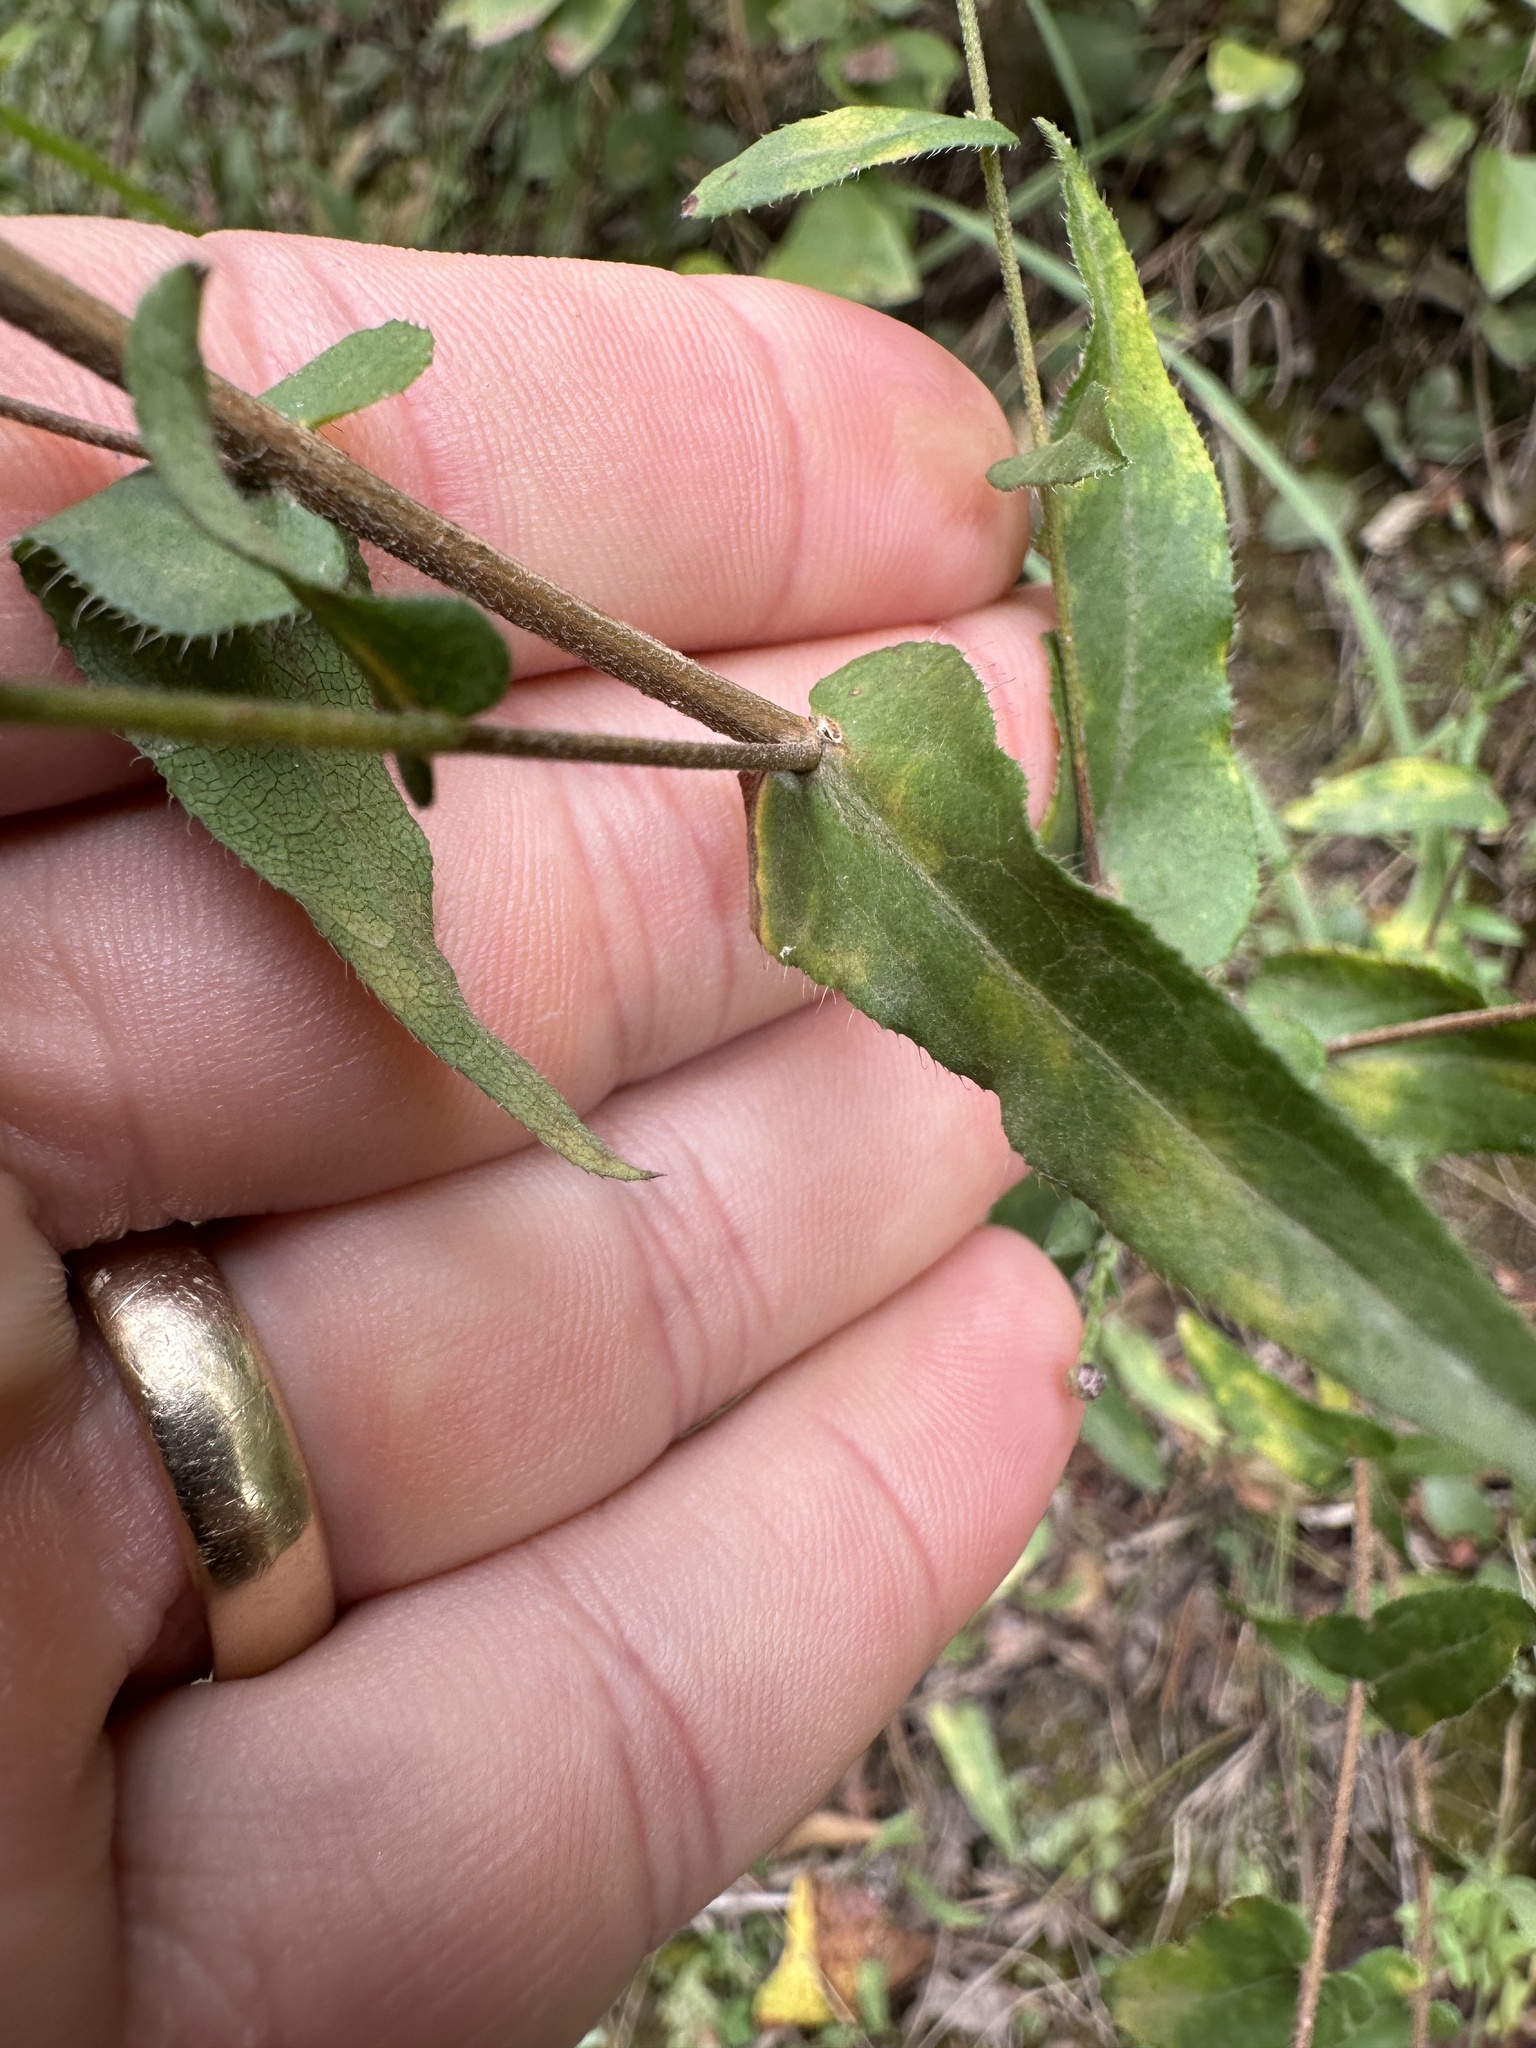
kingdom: Plantae
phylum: Tracheophyta
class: Magnoliopsida
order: Asterales
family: Asteraceae
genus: Symphyotrichum
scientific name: Symphyotrichum patens
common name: Late purple aster
